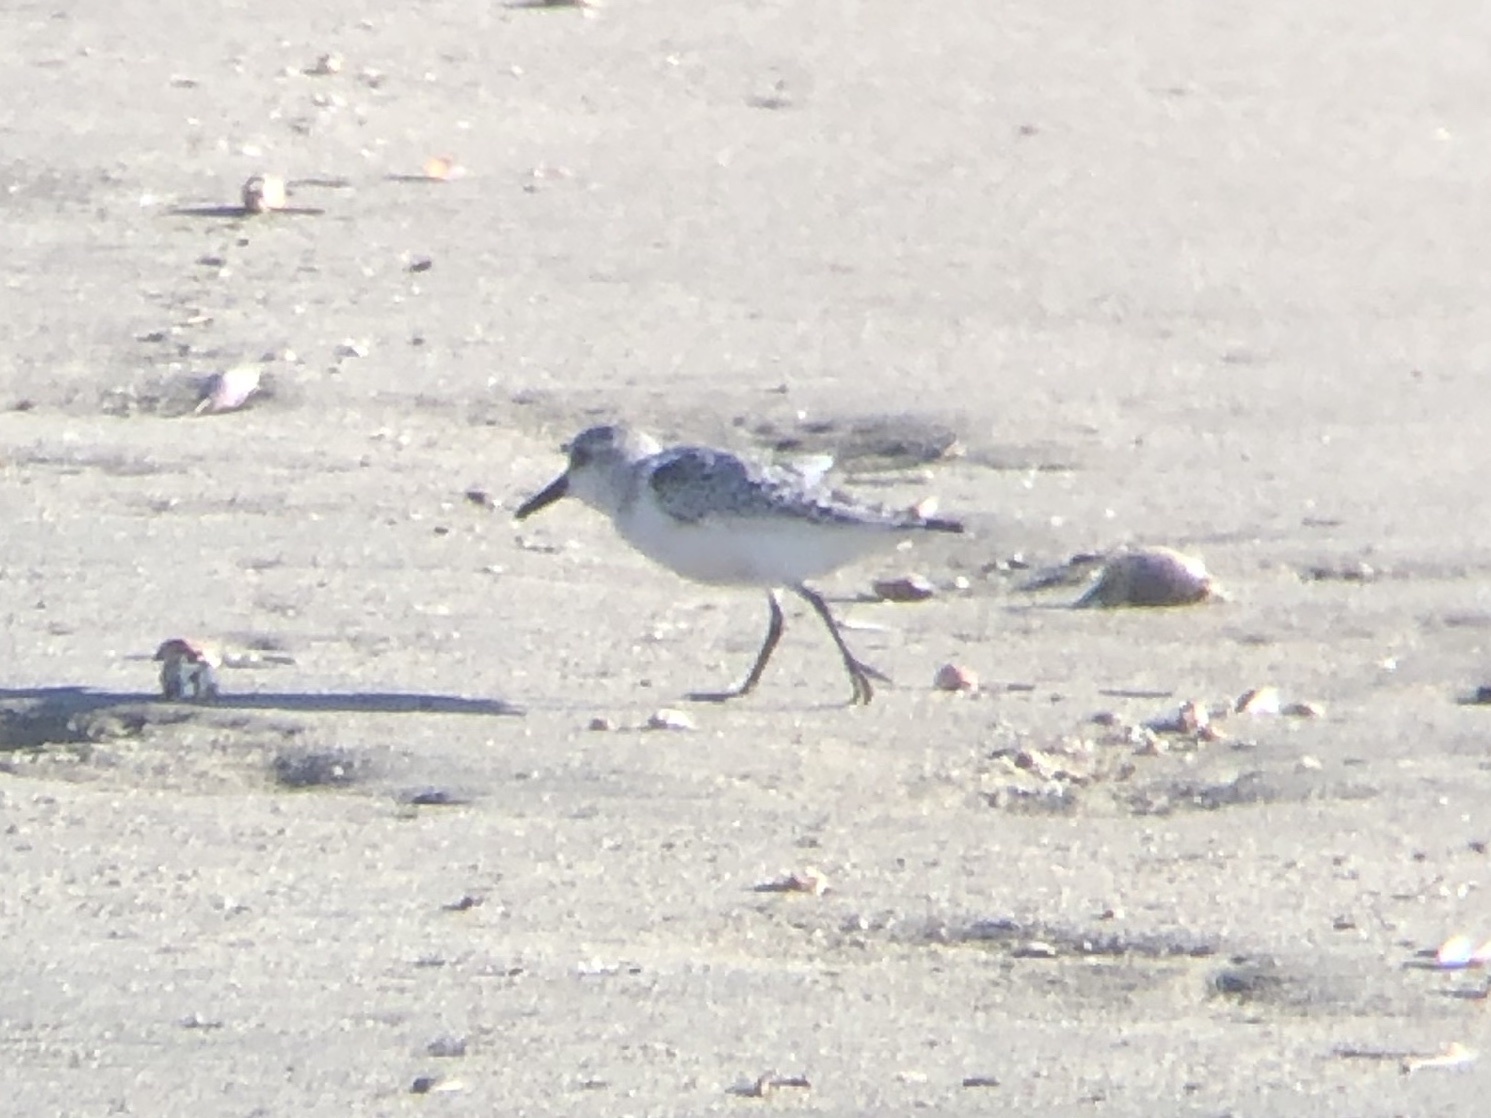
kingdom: Animalia
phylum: Chordata
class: Aves
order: Charadriiformes
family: Scolopacidae
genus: Calidris
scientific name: Calidris alba
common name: Sanderling
